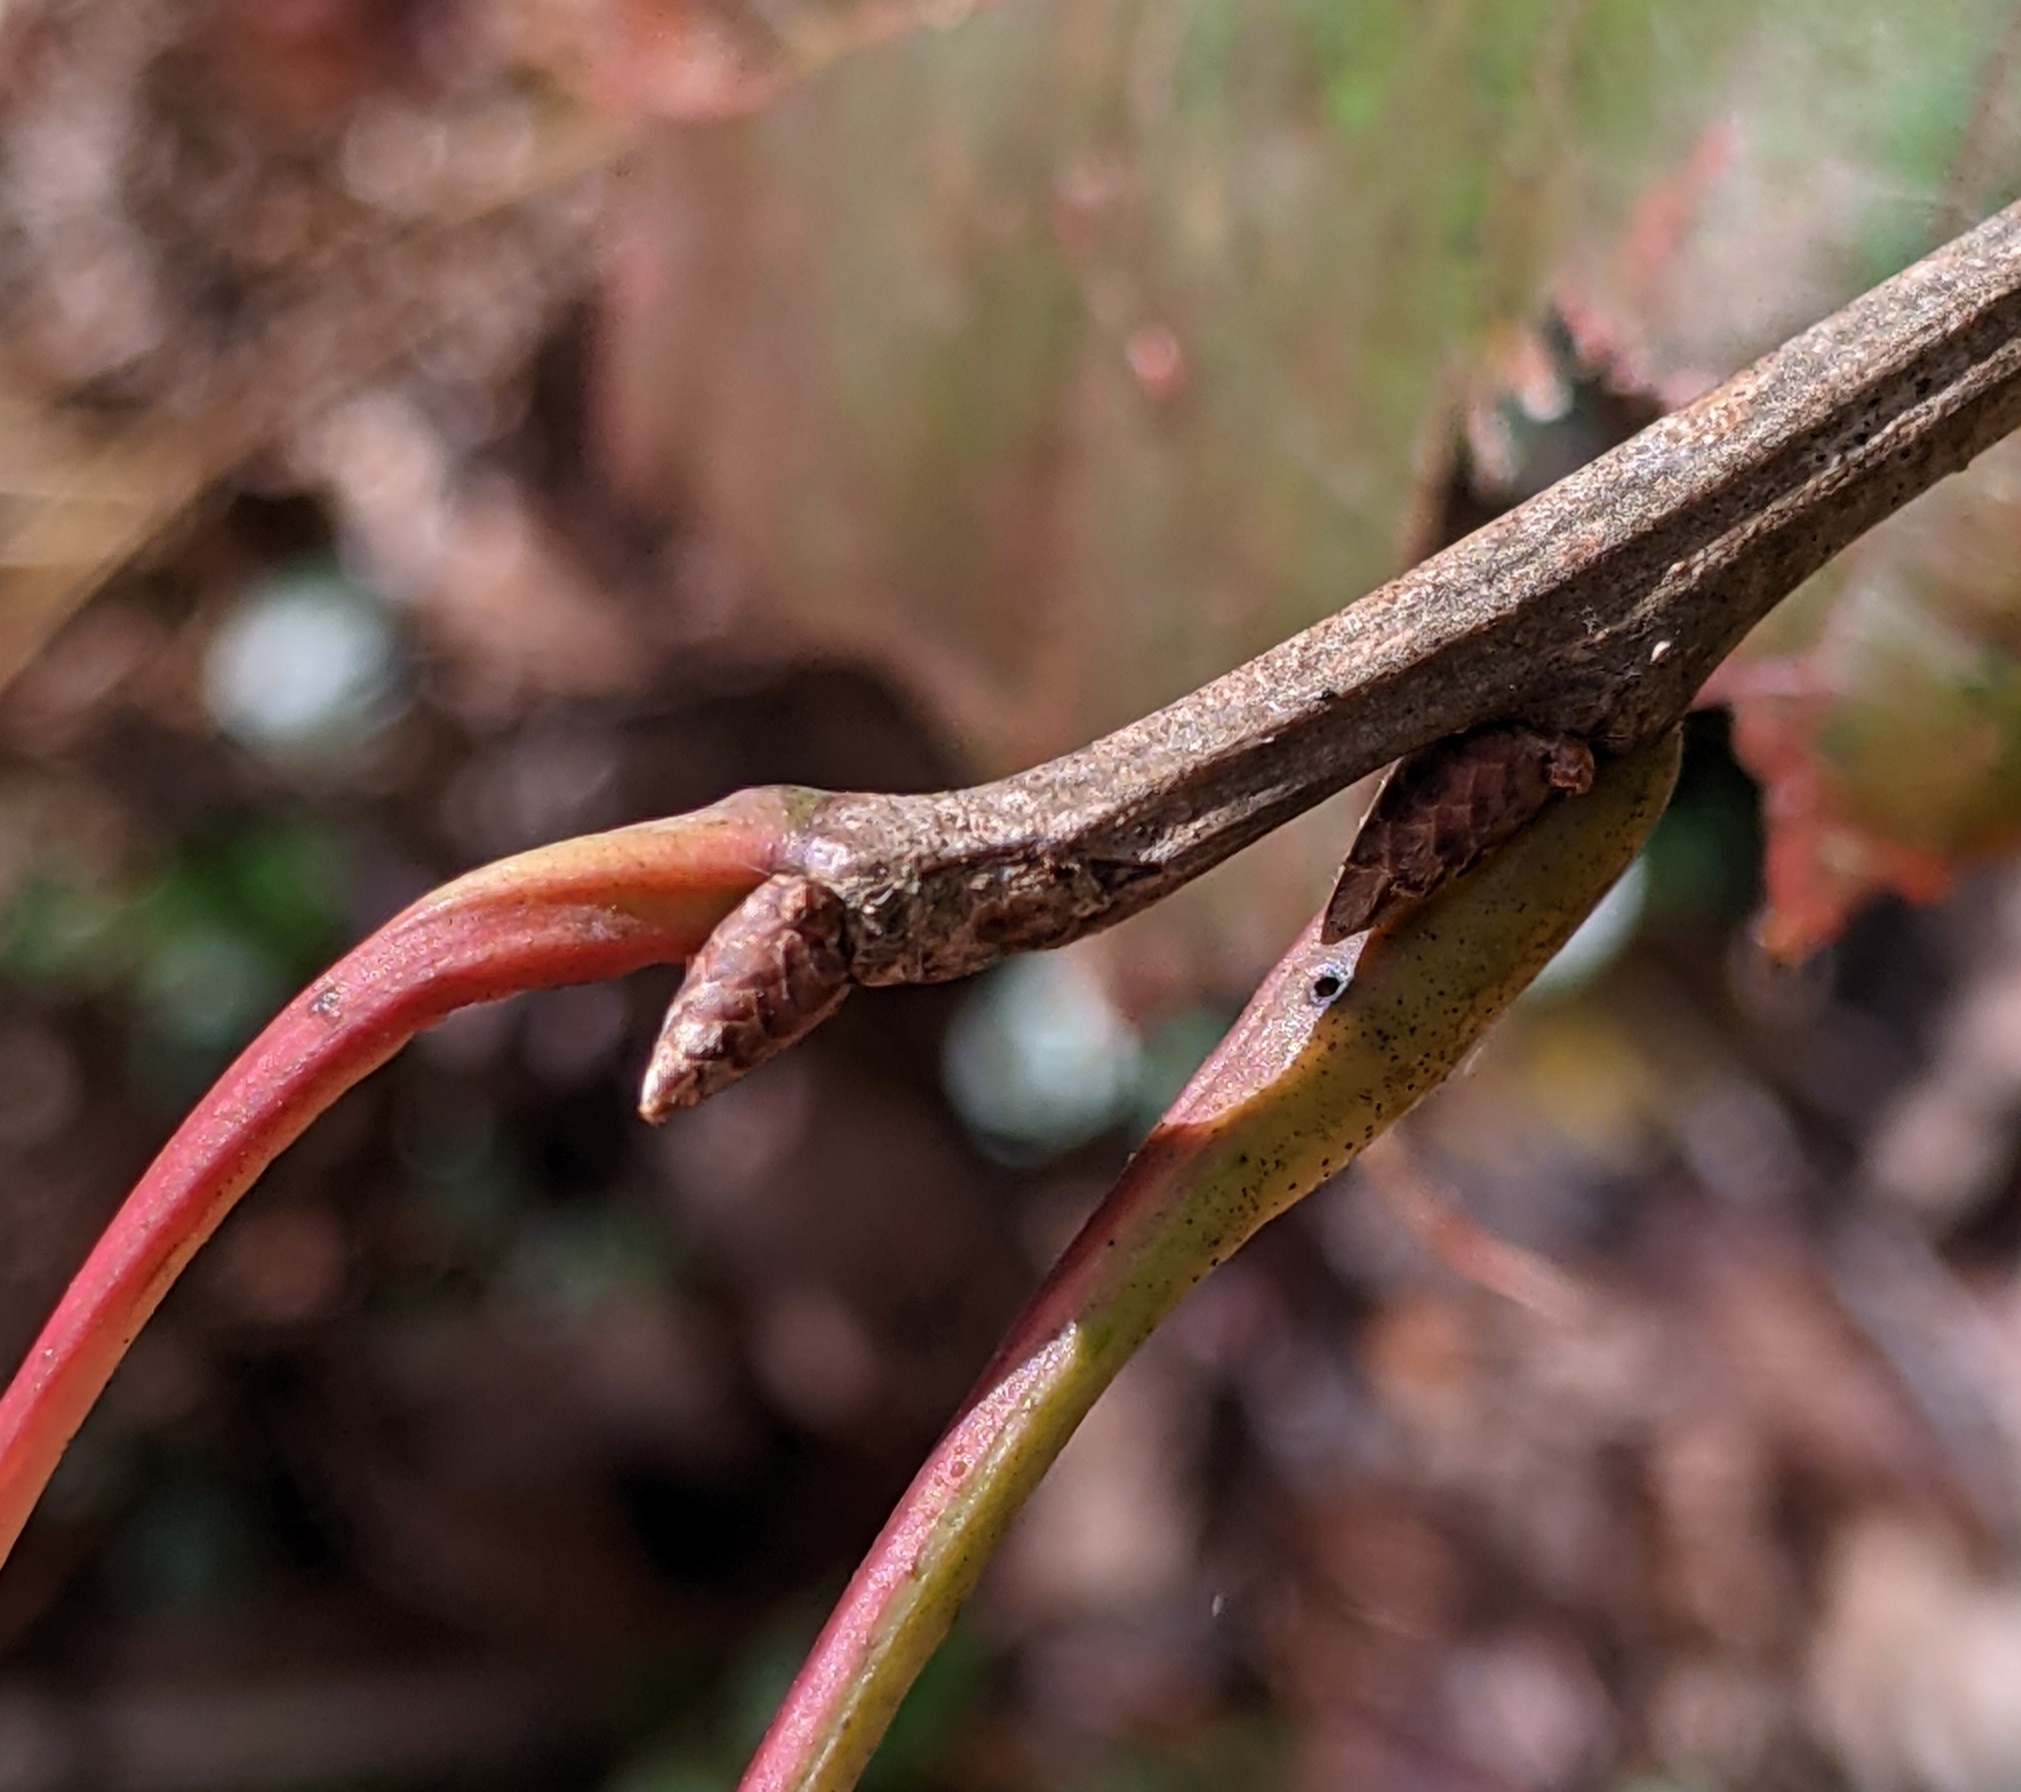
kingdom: Plantae
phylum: Tracheophyta
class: Magnoliopsida
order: Fagales
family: Fagaceae
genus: Quercus
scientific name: Quercus rubra
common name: Red oak
